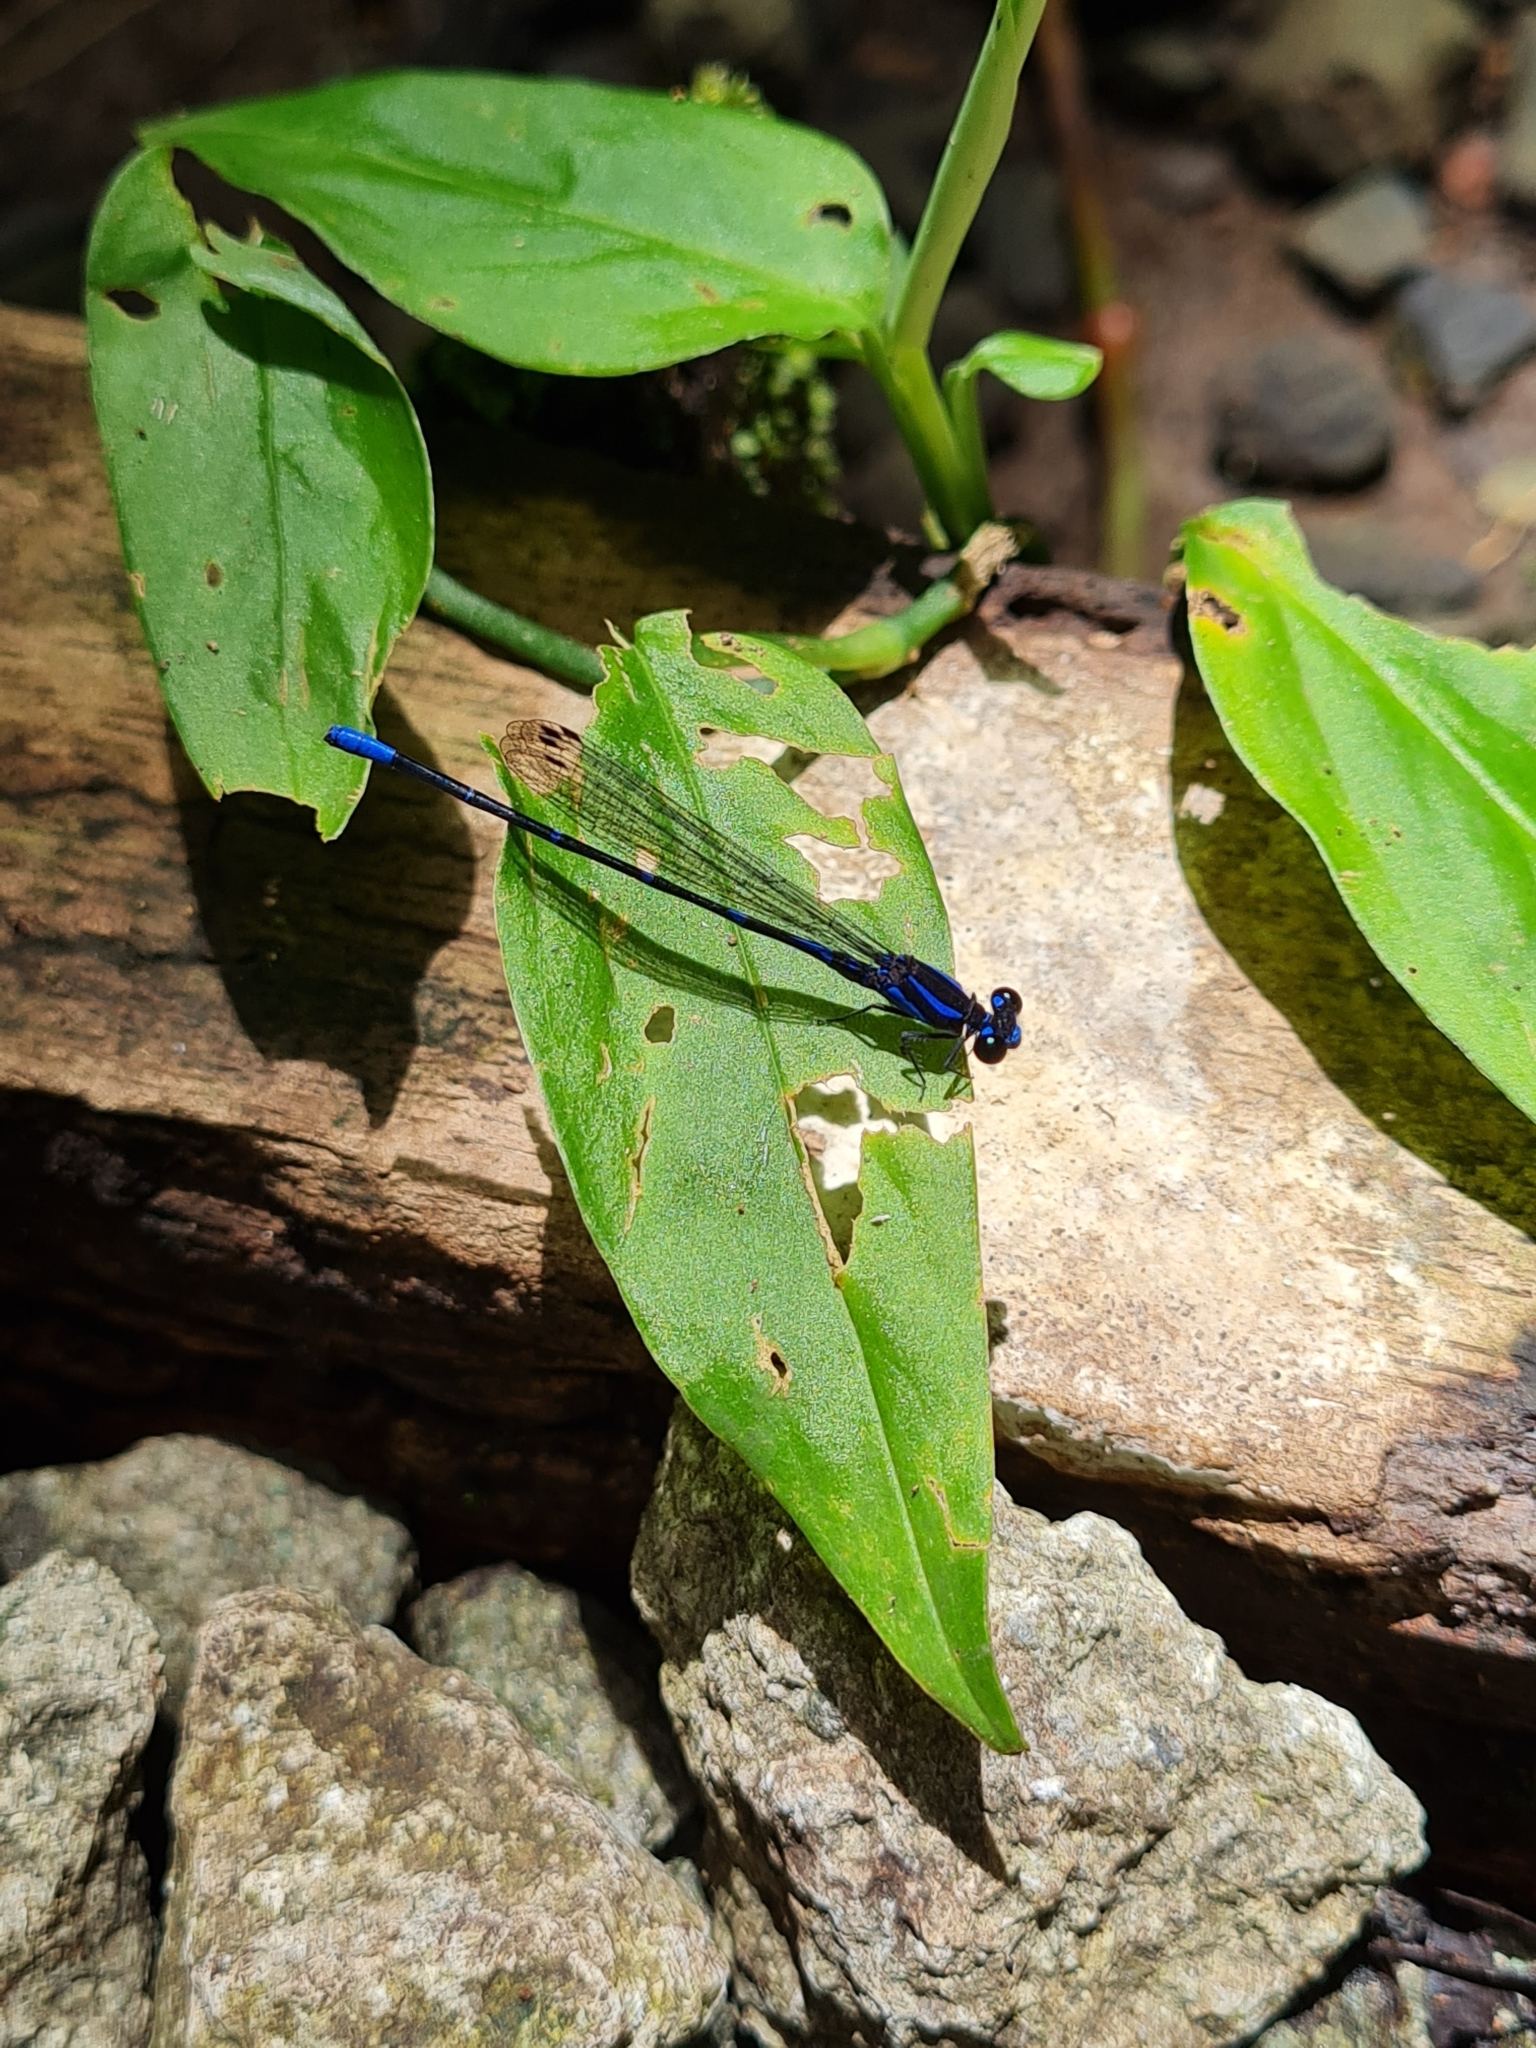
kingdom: Animalia
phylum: Arthropoda
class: Insecta
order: Odonata
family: Coenagrionidae
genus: Argia
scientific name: Argia oculata
